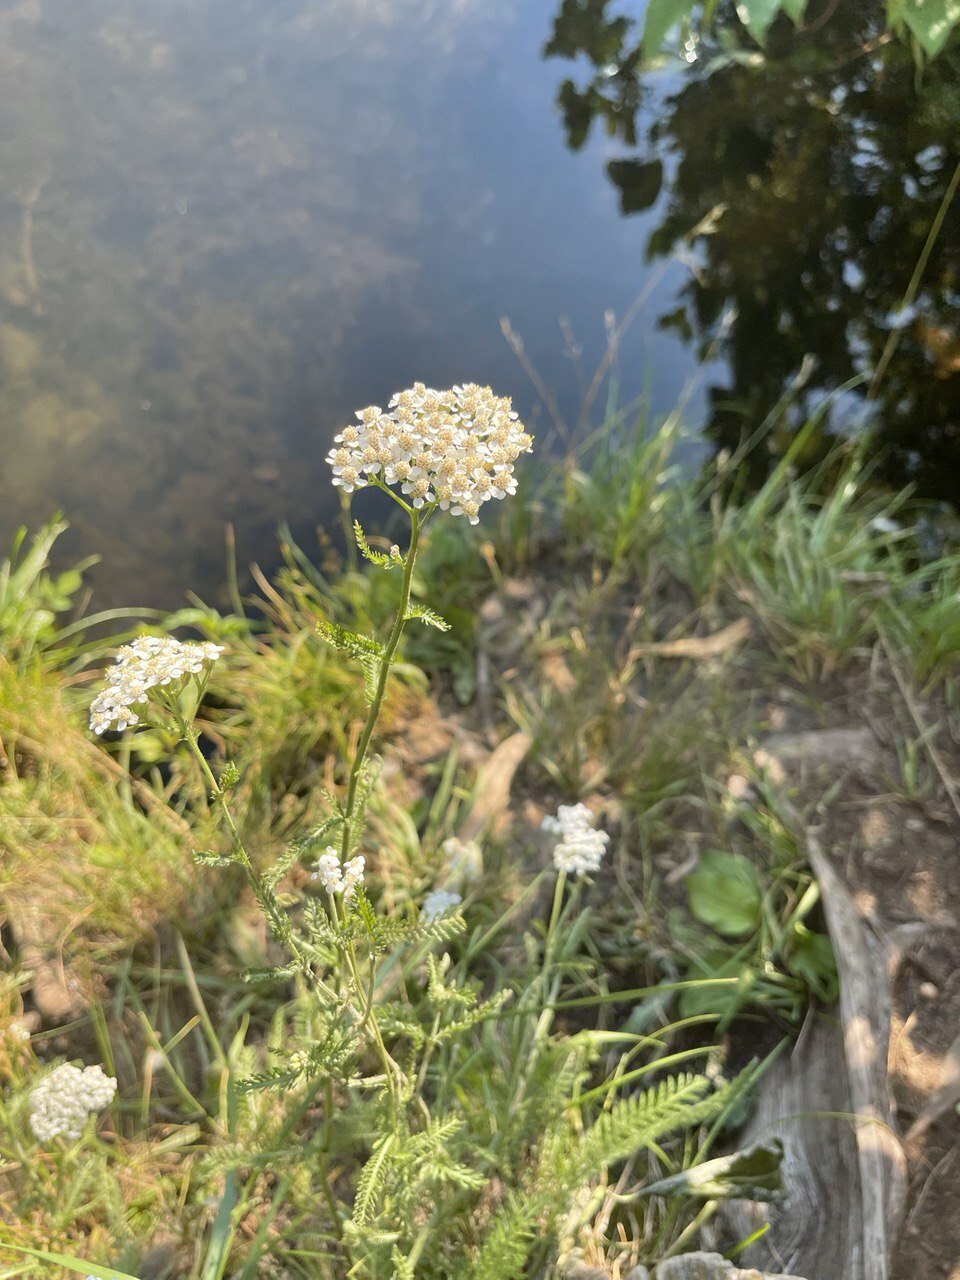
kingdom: Plantae
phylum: Tracheophyta
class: Magnoliopsida
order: Asterales
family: Asteraceae
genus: Achillea
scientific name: Achillea millefolium
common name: Yarrow
